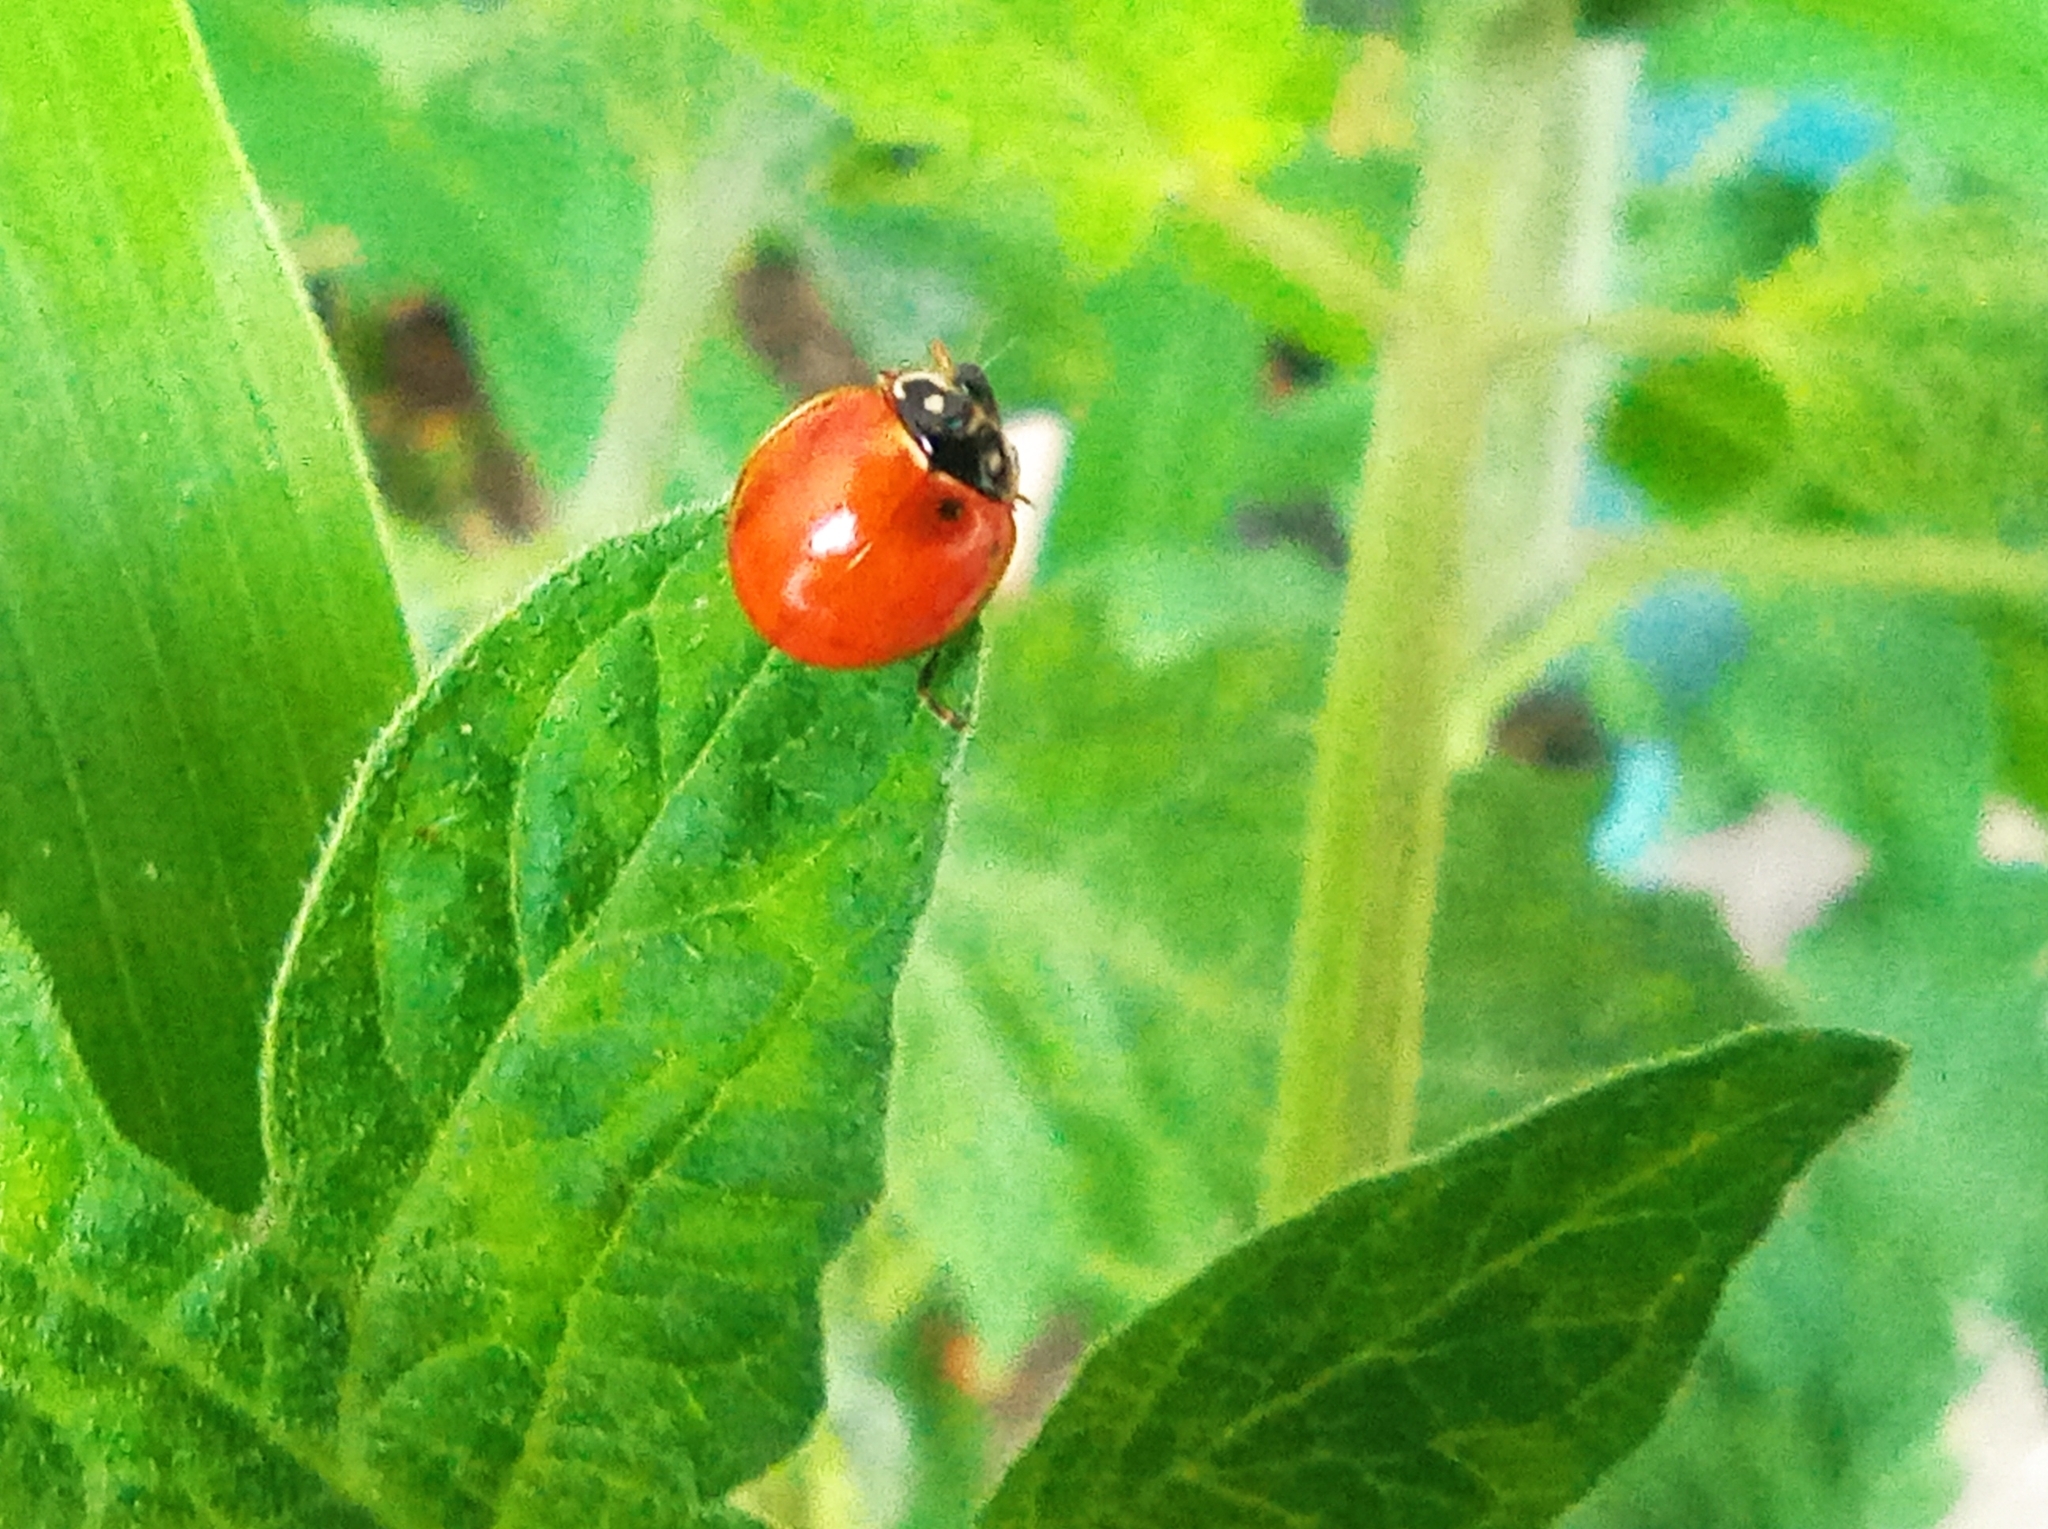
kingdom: Animalia
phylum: Arthropoda
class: Insecta
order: Coleoptera
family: Coccinellidae
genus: Cycloneda
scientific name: Cycloneda sanguinea
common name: Ladybird beetle
